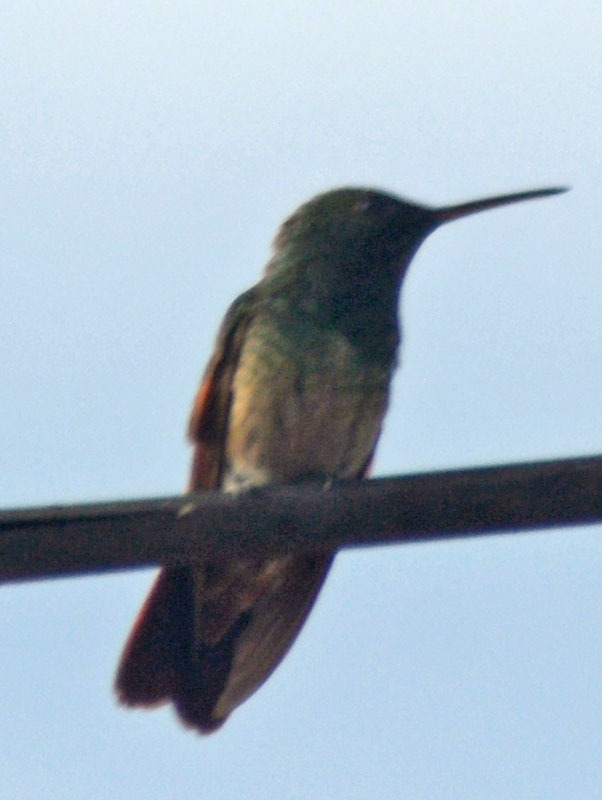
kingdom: Animalia
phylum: Chordata
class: Aves
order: Apodiformes
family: Trochilidae
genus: Saucerottia
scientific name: Saucerottia beryllina
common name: Berylline hummingbird
